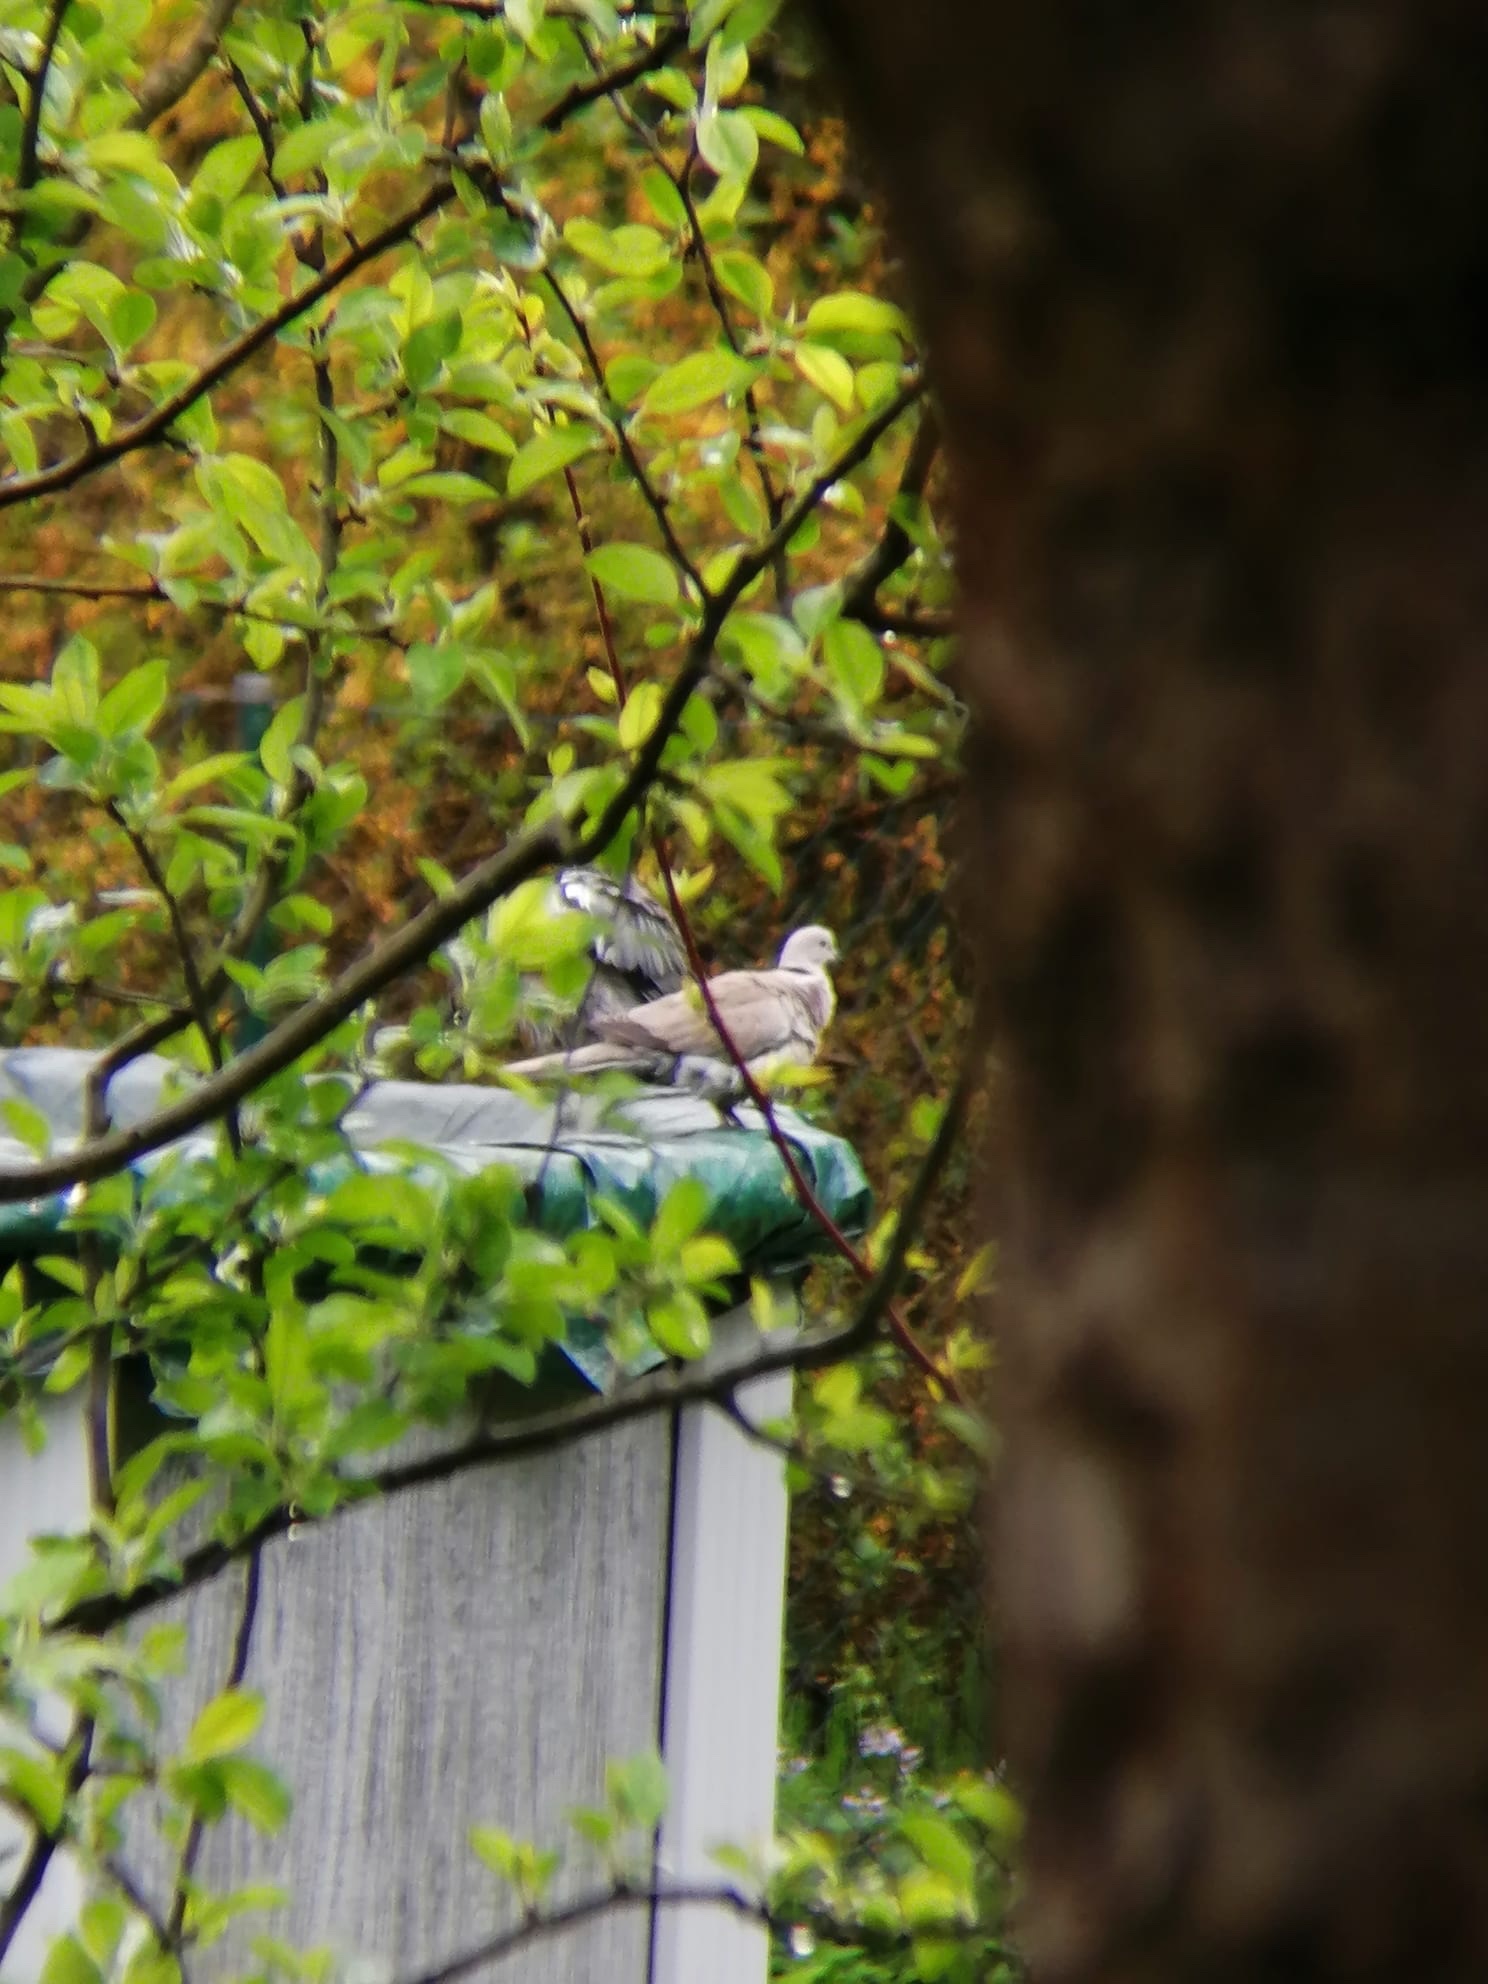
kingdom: Animalia
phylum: Chordata
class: Aves
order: Columbiformes
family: Columbidae
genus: Streptopelia
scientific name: Streptopelia decaocto
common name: Eurasian collared dove
